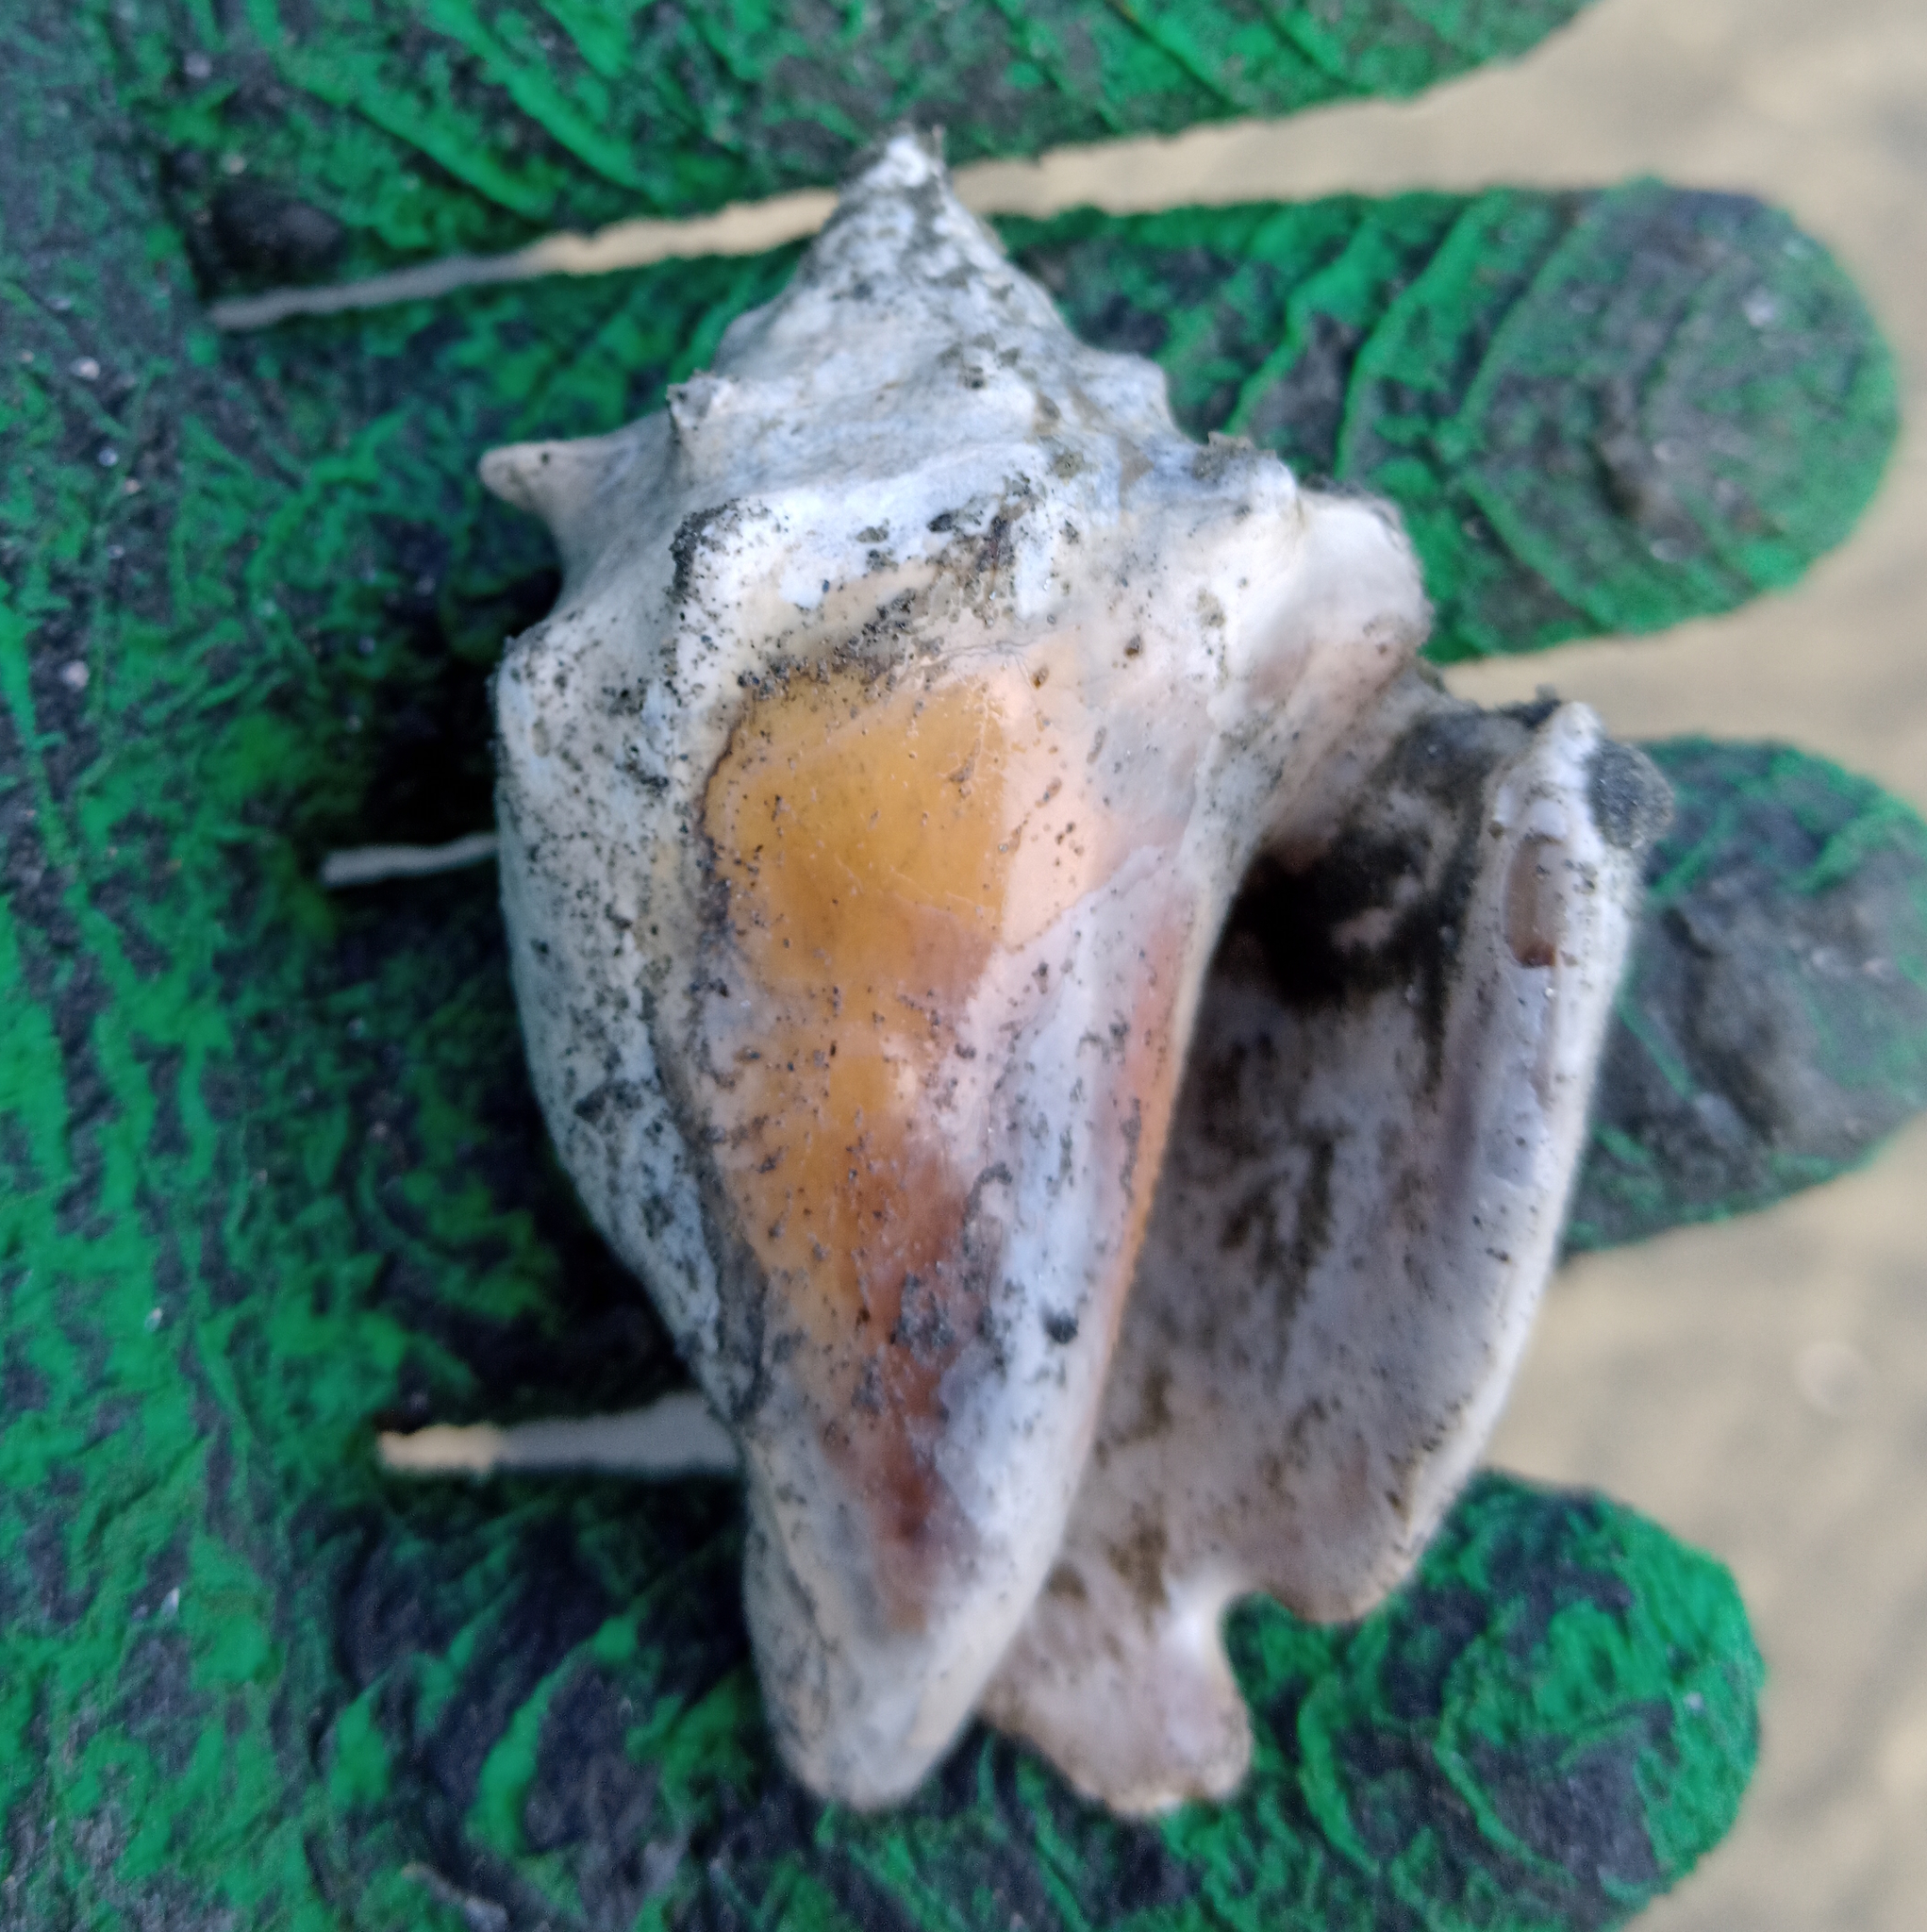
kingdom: Animalia
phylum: Mollusca
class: Gastropoda
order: Littorinimorpha
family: Strombidae
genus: Strombus
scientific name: Strombus pugilis
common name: West indian fighting conch
